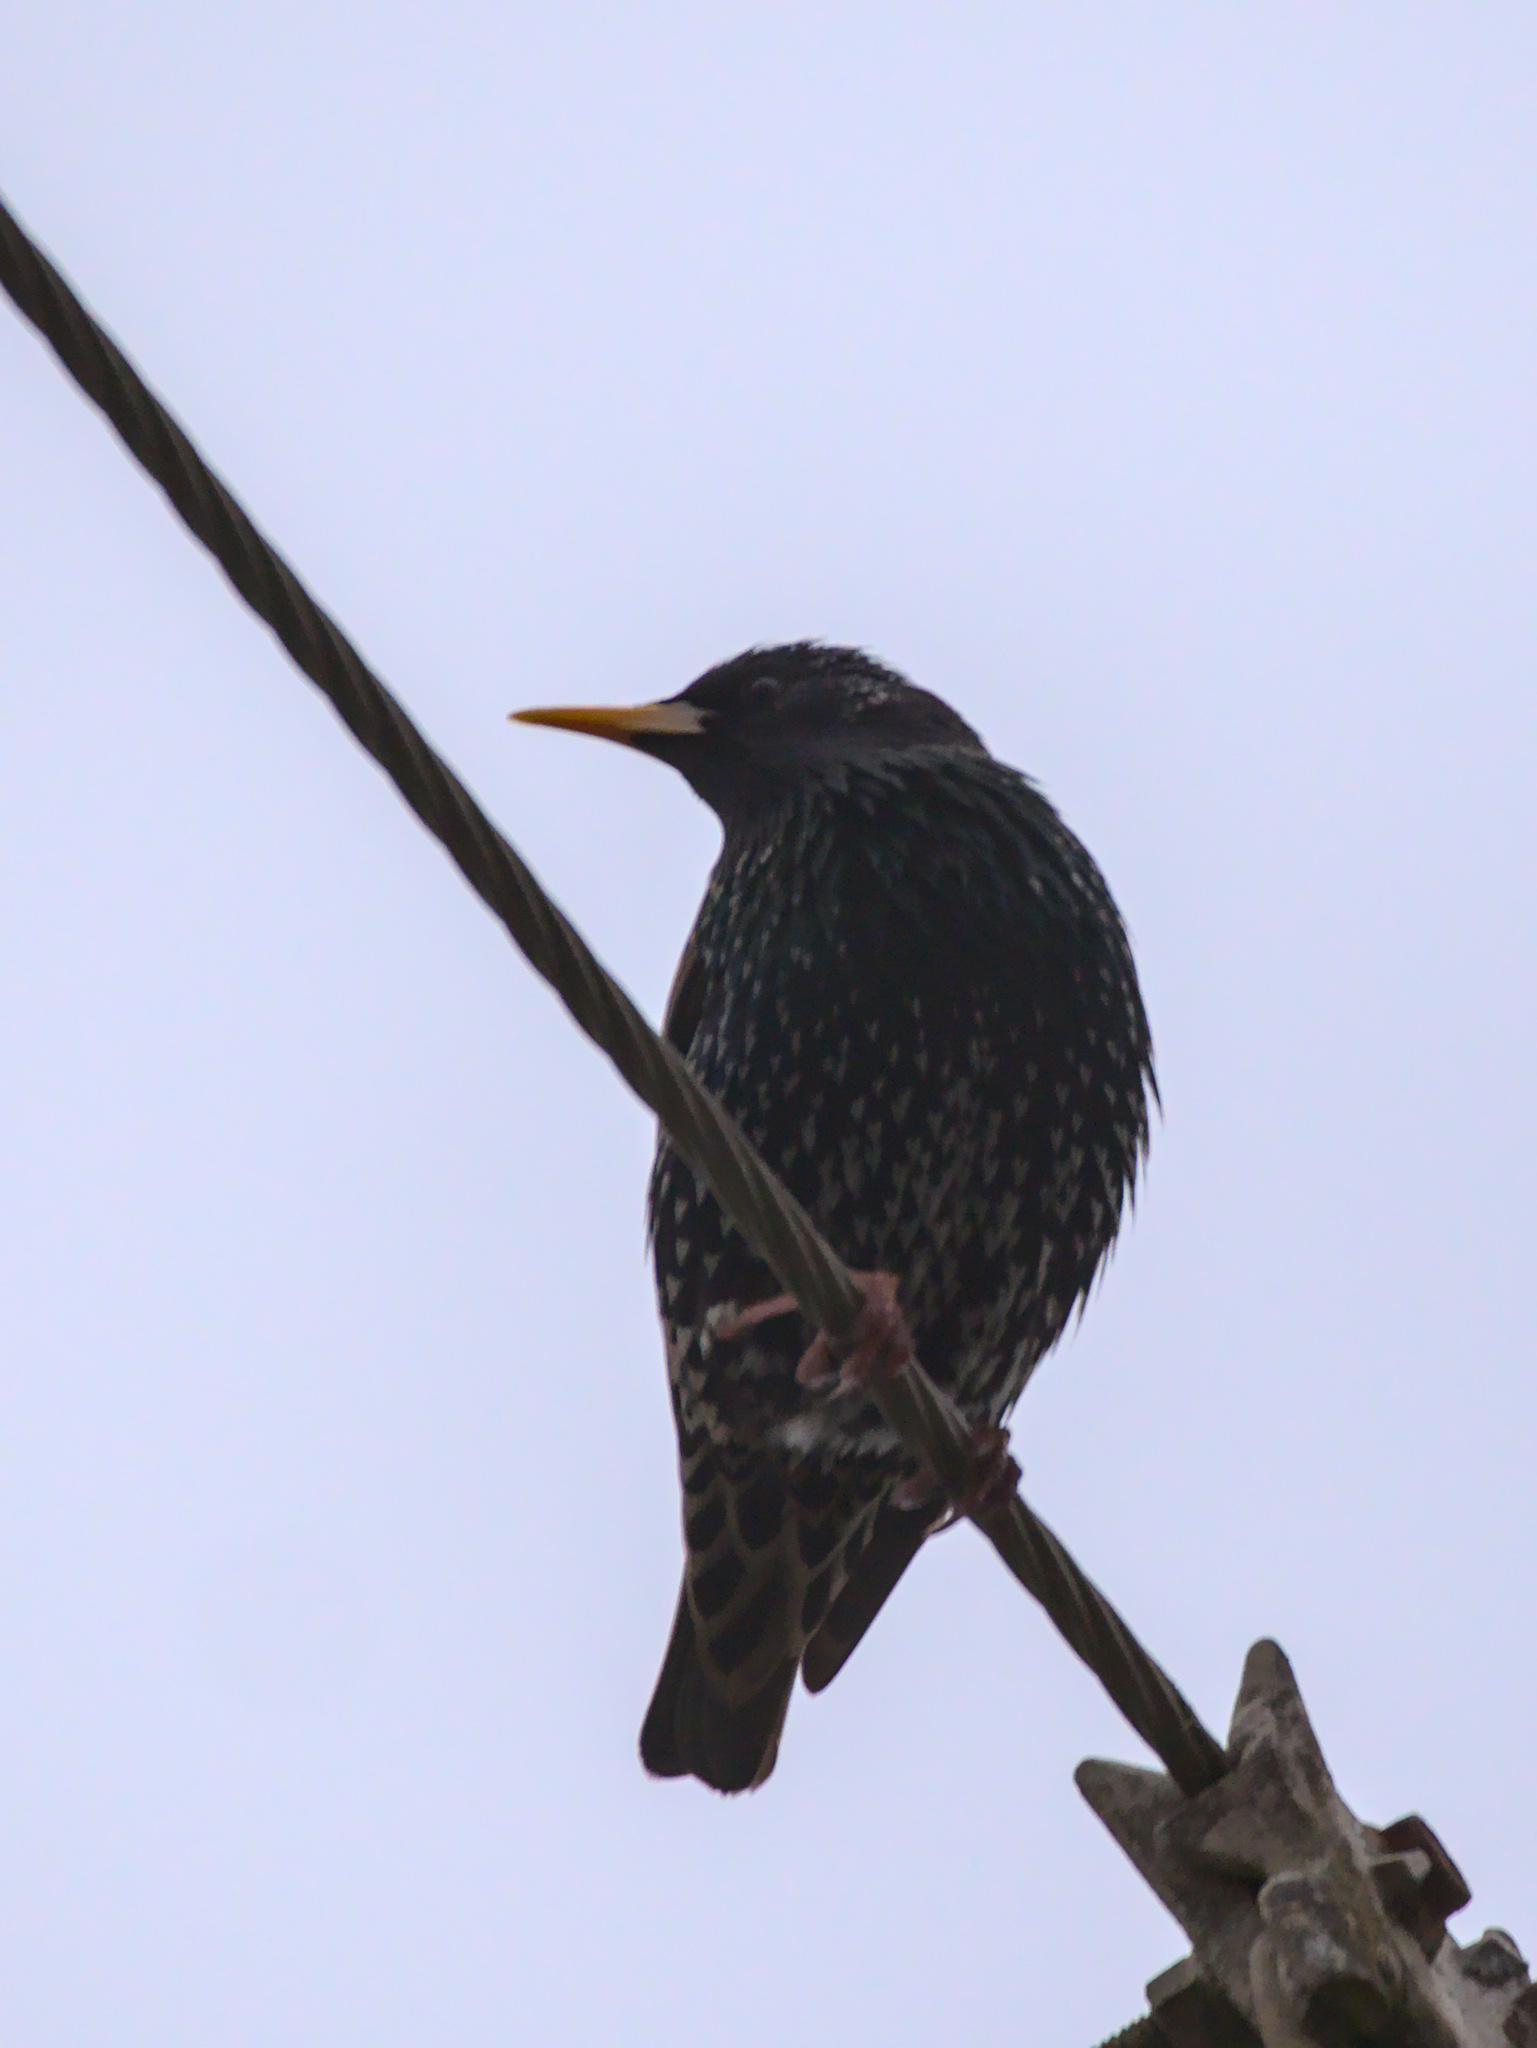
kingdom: Animalia
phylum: Chordata
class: Aves
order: Passeriformes
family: Sturnidae
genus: Sturnus
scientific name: Sturnus vulgaris
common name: Common starling
